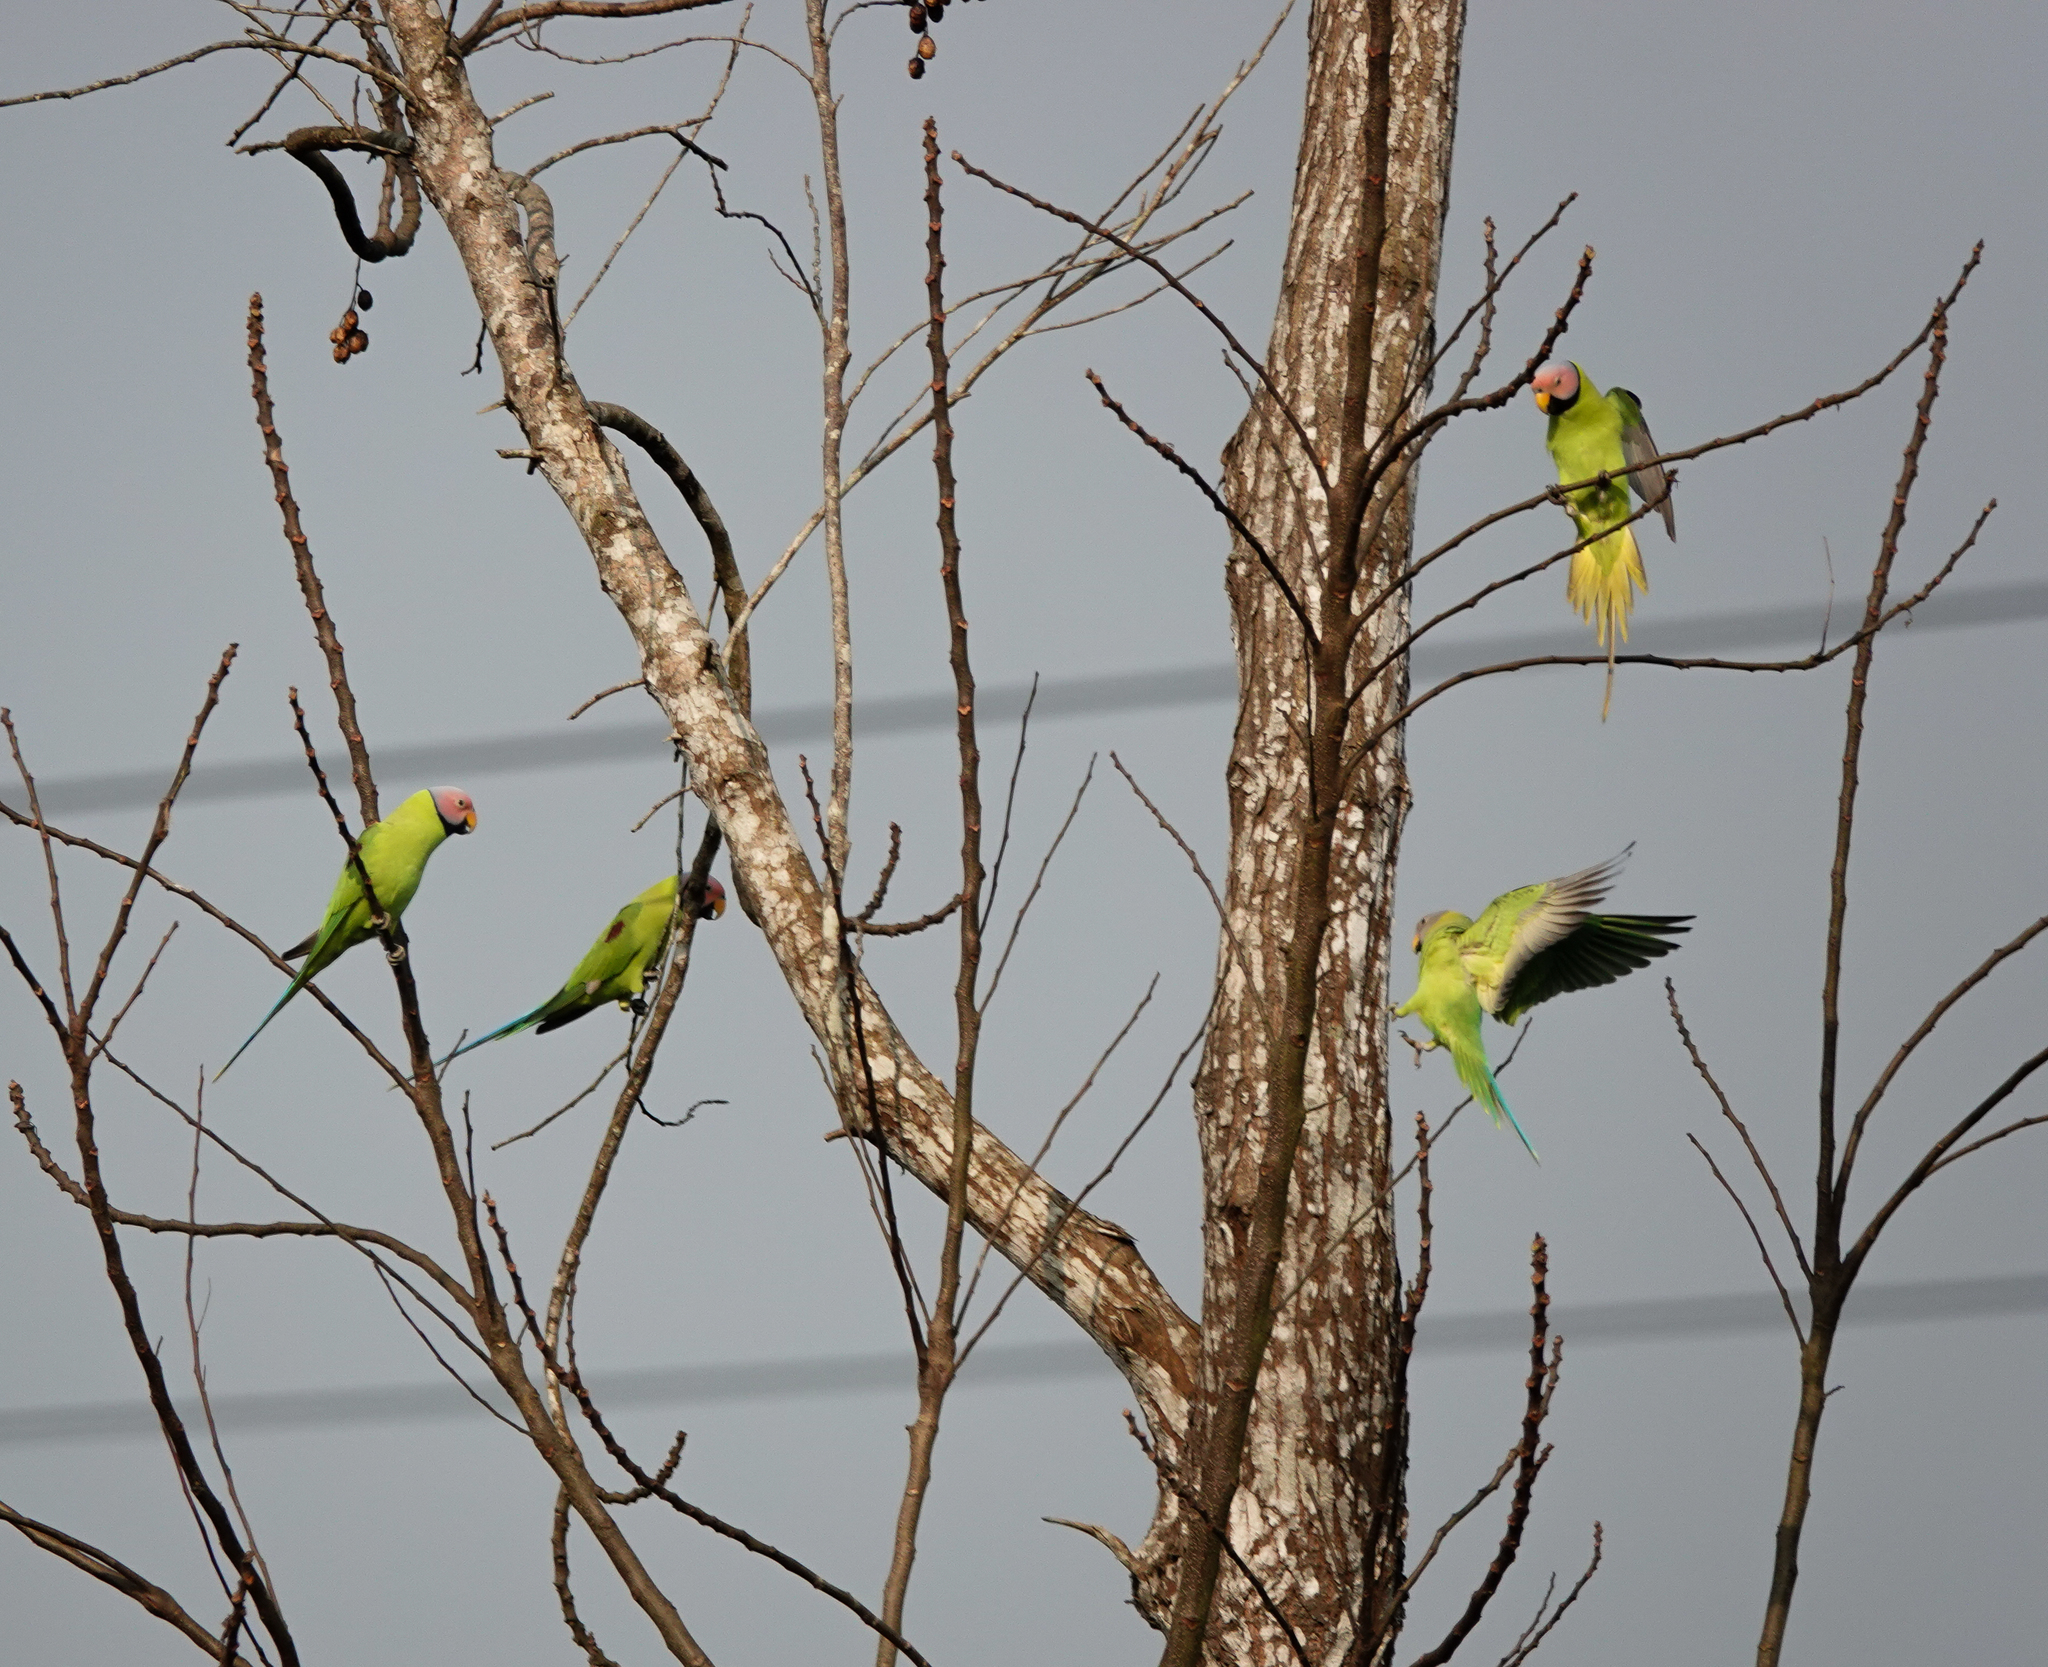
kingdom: Animalia
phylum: Chordata
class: Aves
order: Psittaciformes
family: Psittacidae
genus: Psittacula
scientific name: Psittacula roseata
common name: Blossom-headed parakeet
